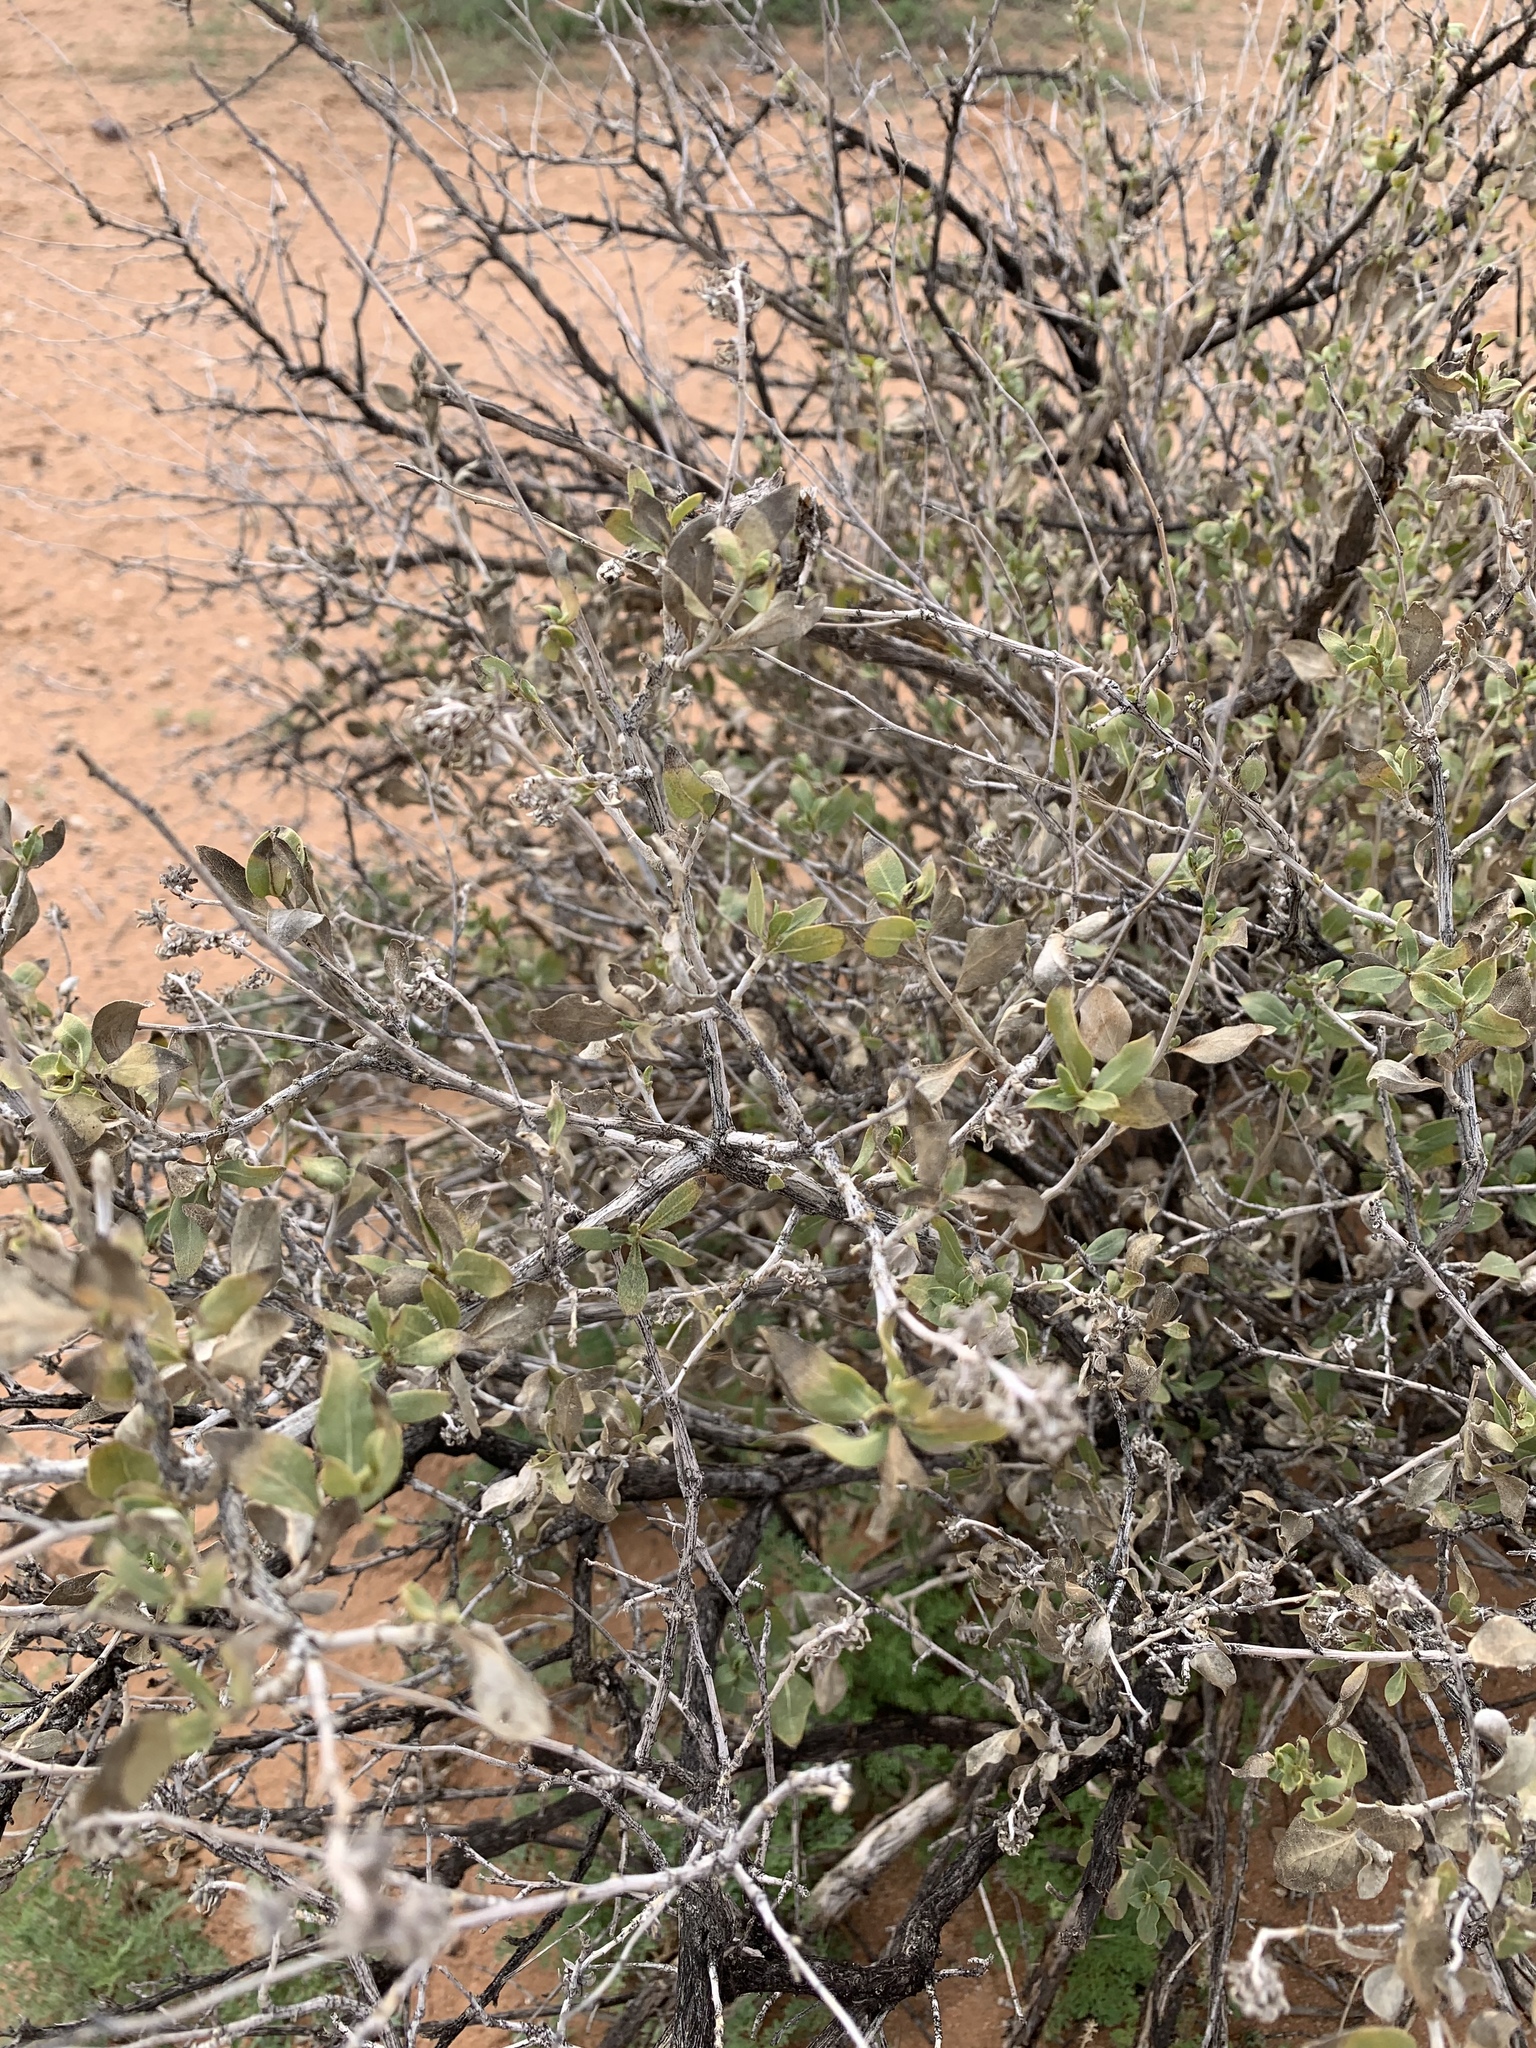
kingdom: Plantae
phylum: Tracheophyta
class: Magnoliopsida
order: Asterales
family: Asteraceae
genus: Flourensia
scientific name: Flourensia cernua
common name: Varnishbush
